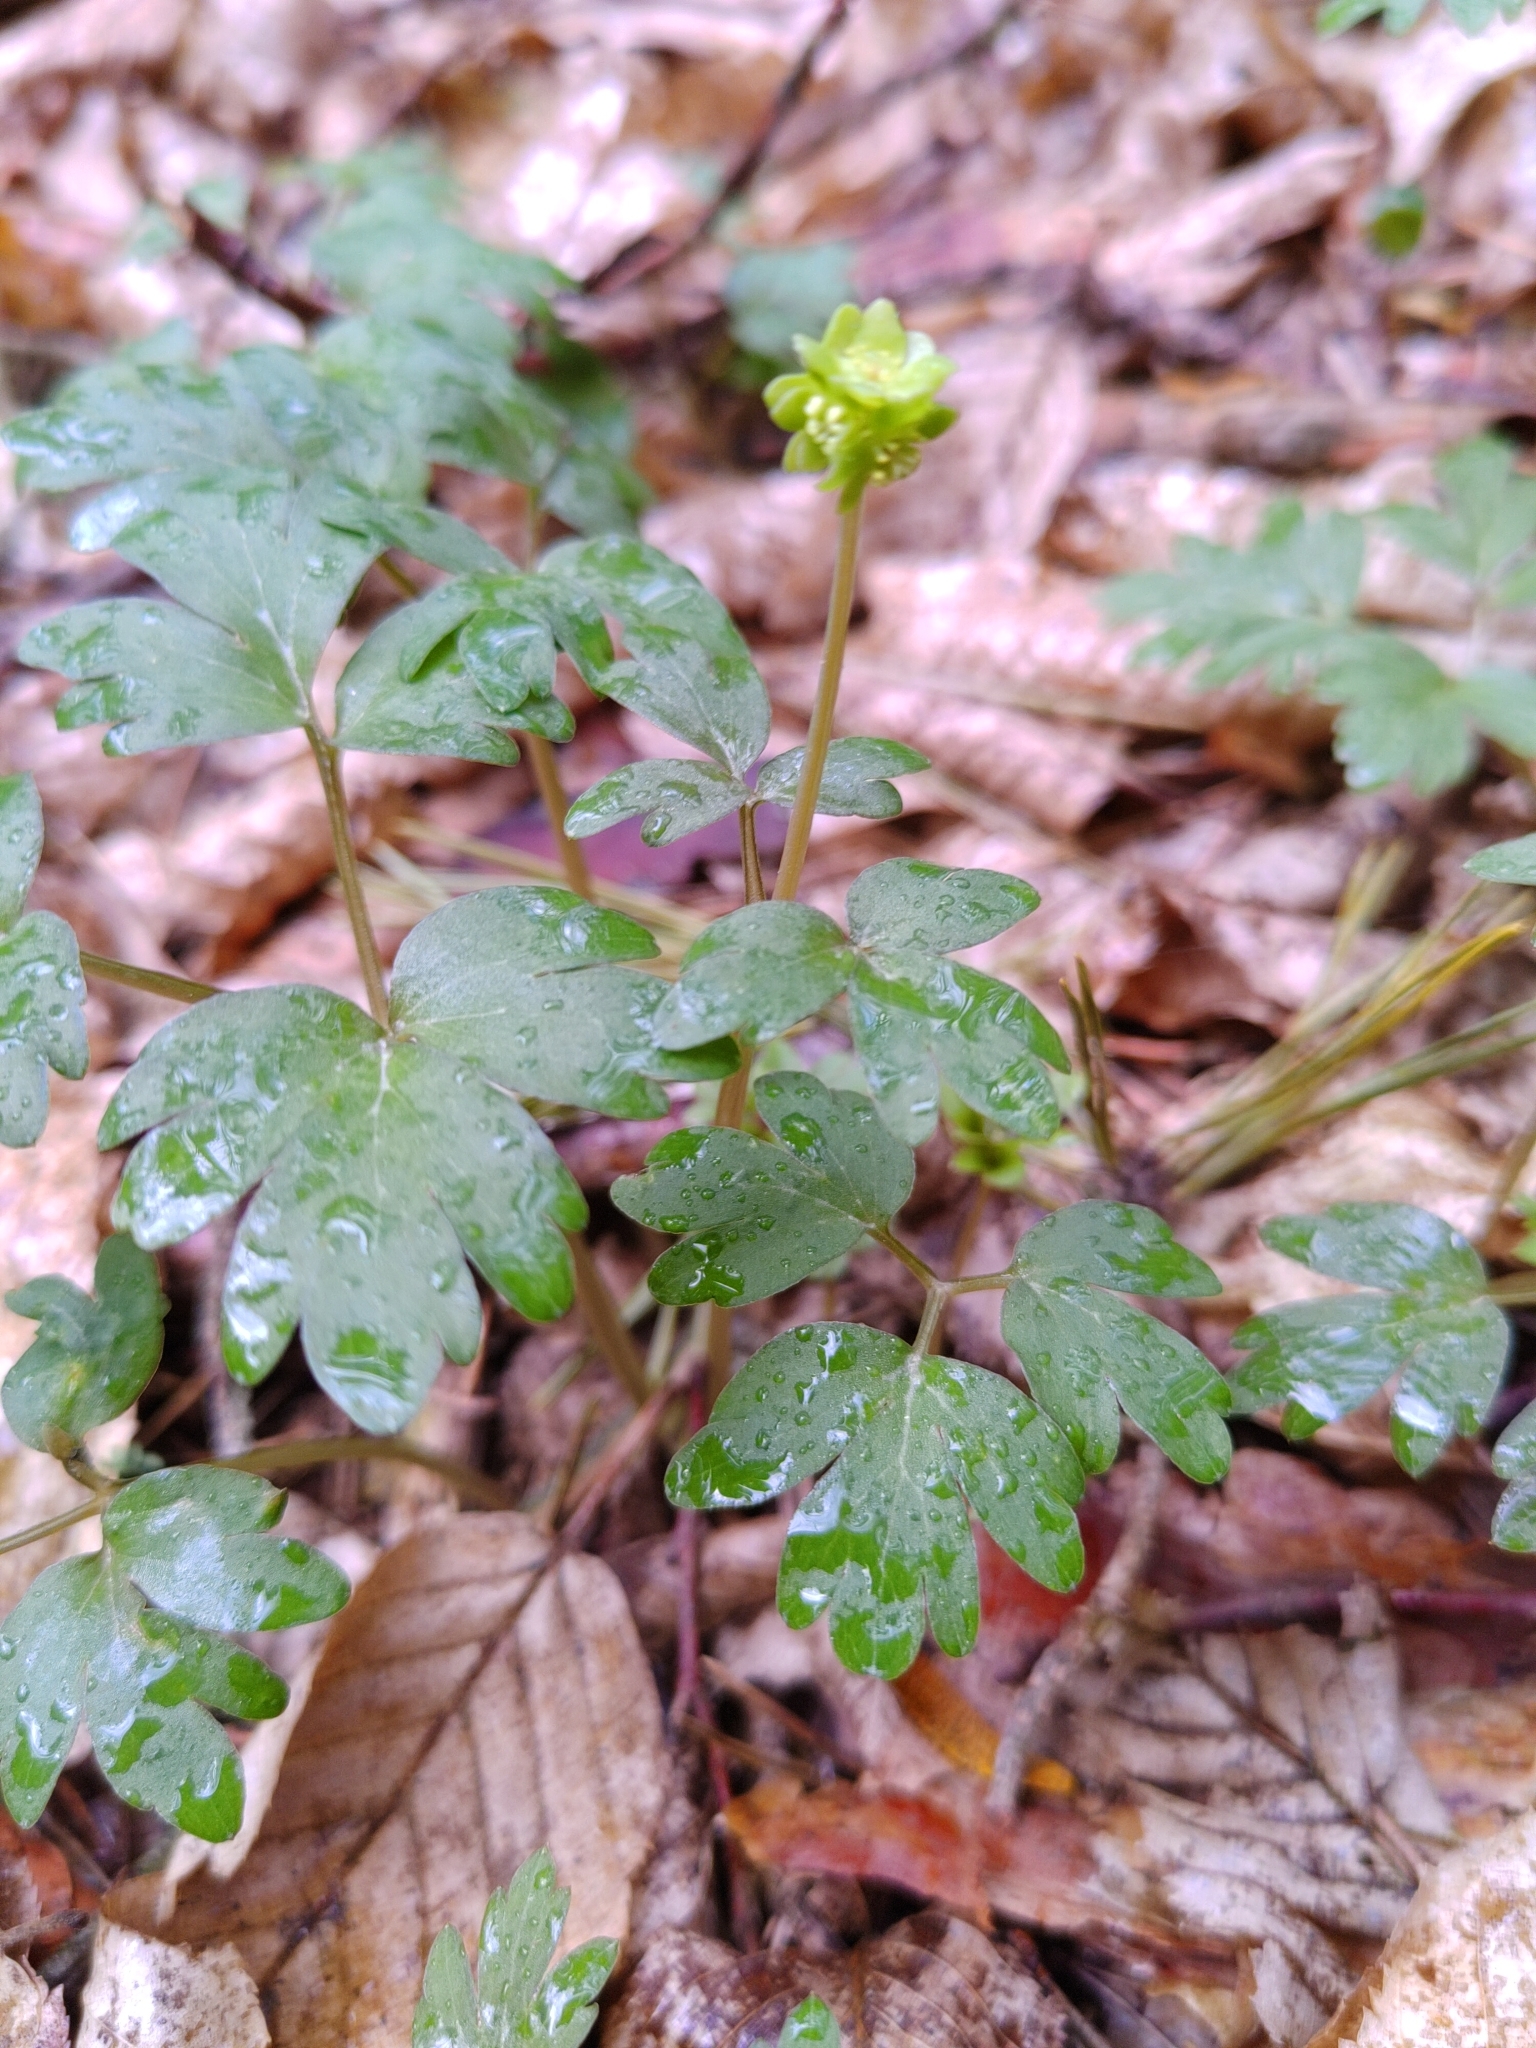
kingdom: Plantae
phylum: Tracheophyta
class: Magnoliopsida
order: Dipsacales
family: Viburnaceae
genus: Adoxa
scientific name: Adoxa moschatellina
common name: Moschatel
